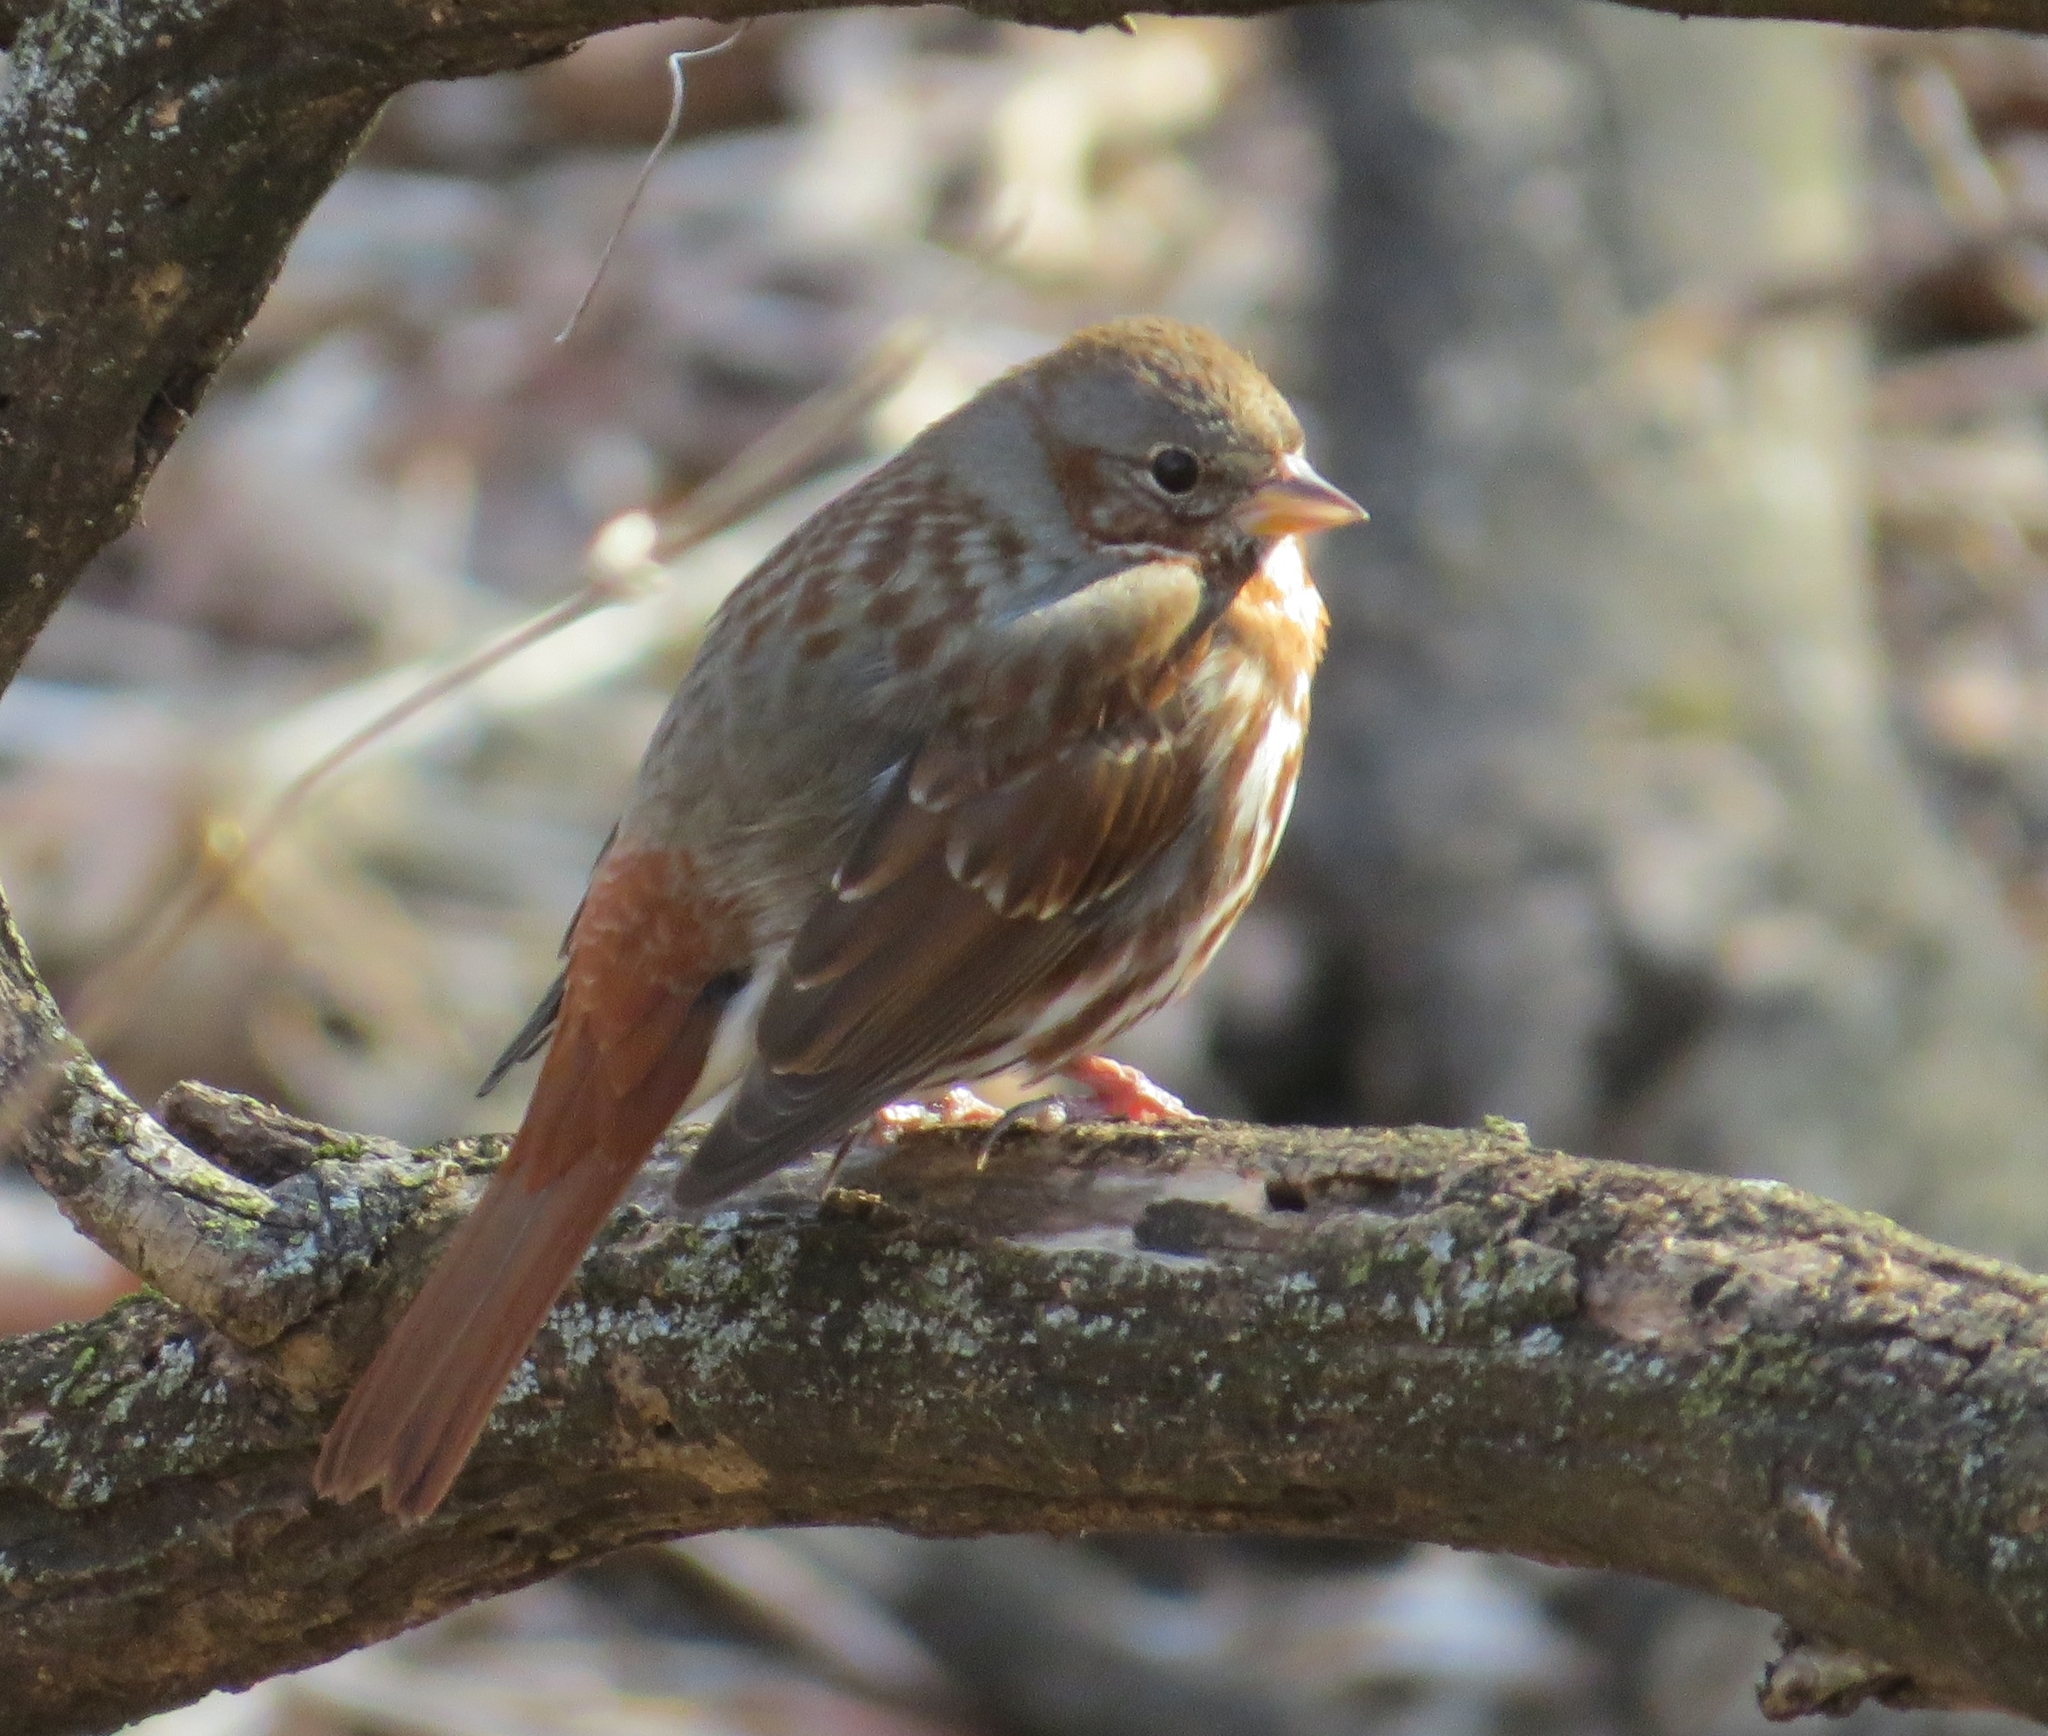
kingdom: Animalia
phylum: Chordata
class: Aves
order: Passeriformes
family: Passerellidae
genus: Passerella
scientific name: Passerella iliaca
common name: Fox sparrow
